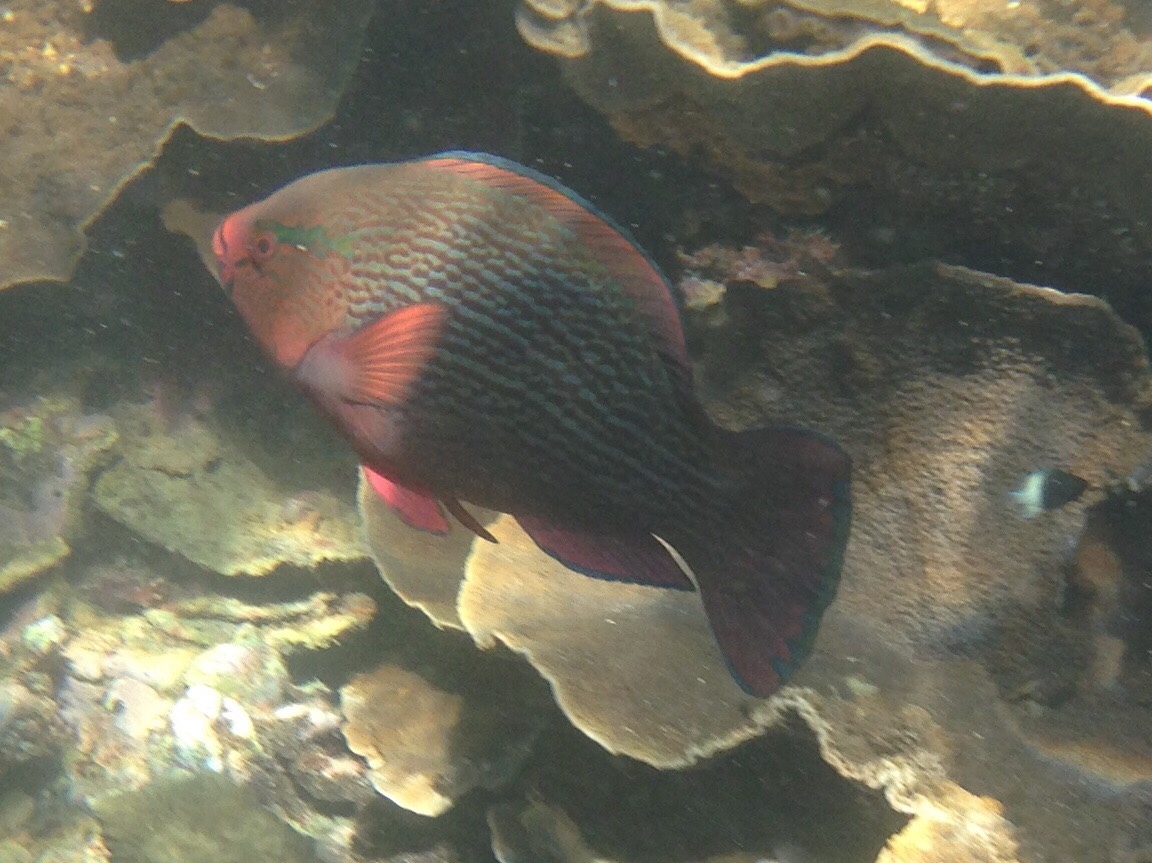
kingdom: Animalia
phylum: Chordata
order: Perciformes
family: Scaridae
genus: Scarus
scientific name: Scarus niger
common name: Dusky parrotfish
